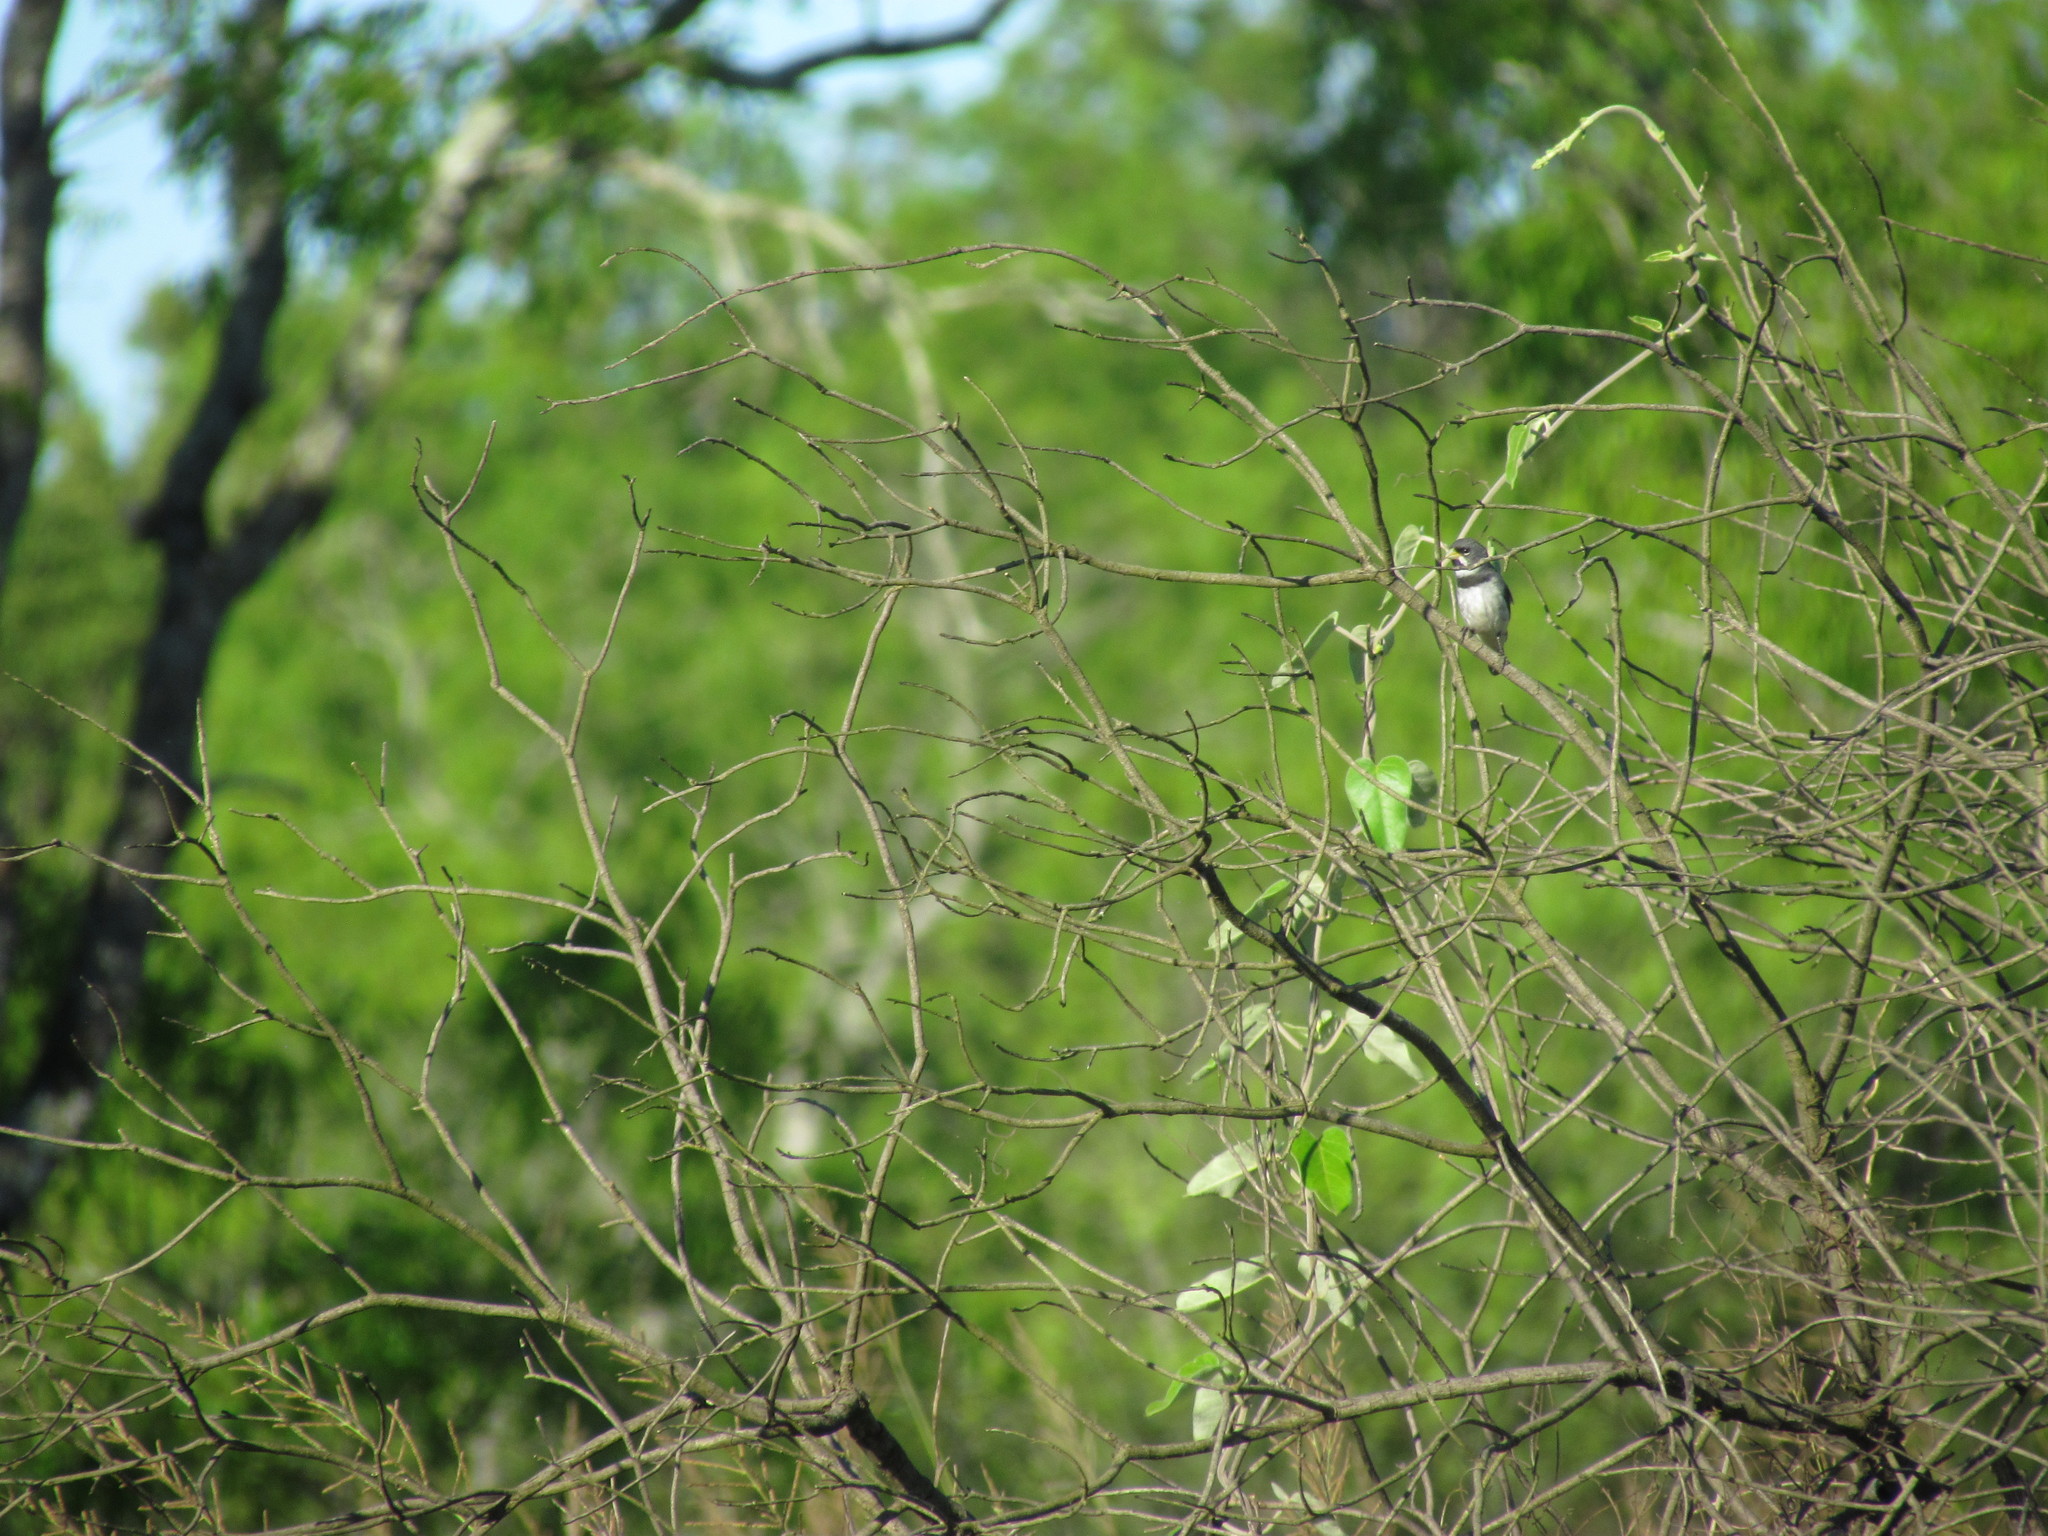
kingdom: Animalia
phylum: Chordata
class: Aves
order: Passeriformes
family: Thraupidae
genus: Sporophila
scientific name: Sporophila caerulescens
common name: Double-collared seedeater
